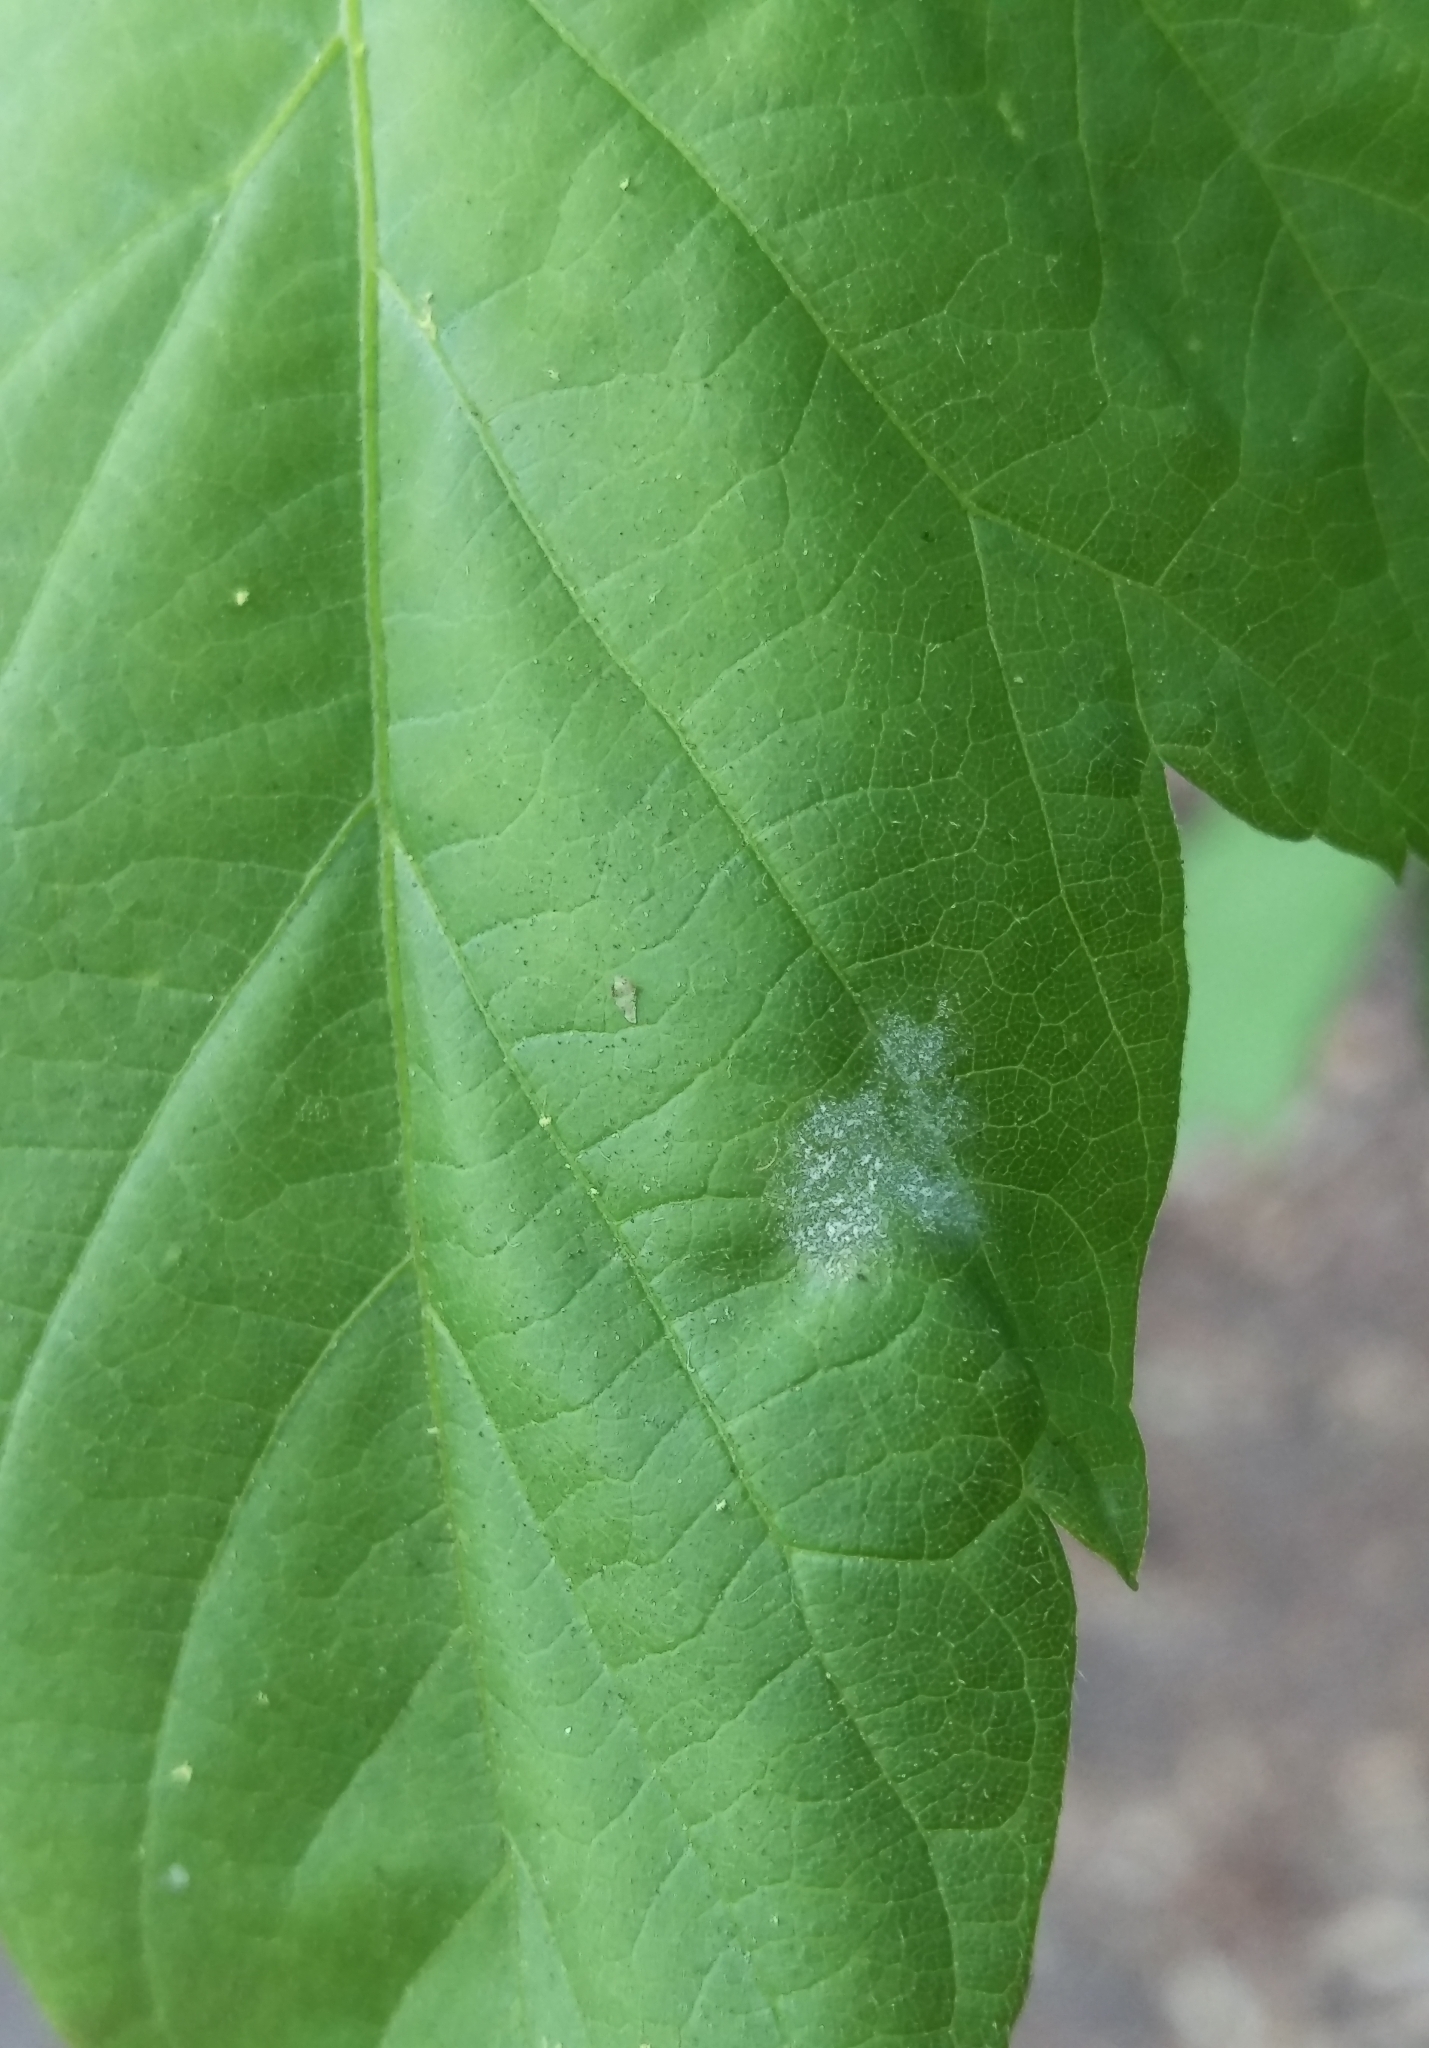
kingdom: Fungi
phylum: Ascomycota
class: Leotiomycetes
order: Helotiales
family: Erysiphaceae
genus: Sawadaea
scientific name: Sawadaea bicornis
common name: Maple mildew
